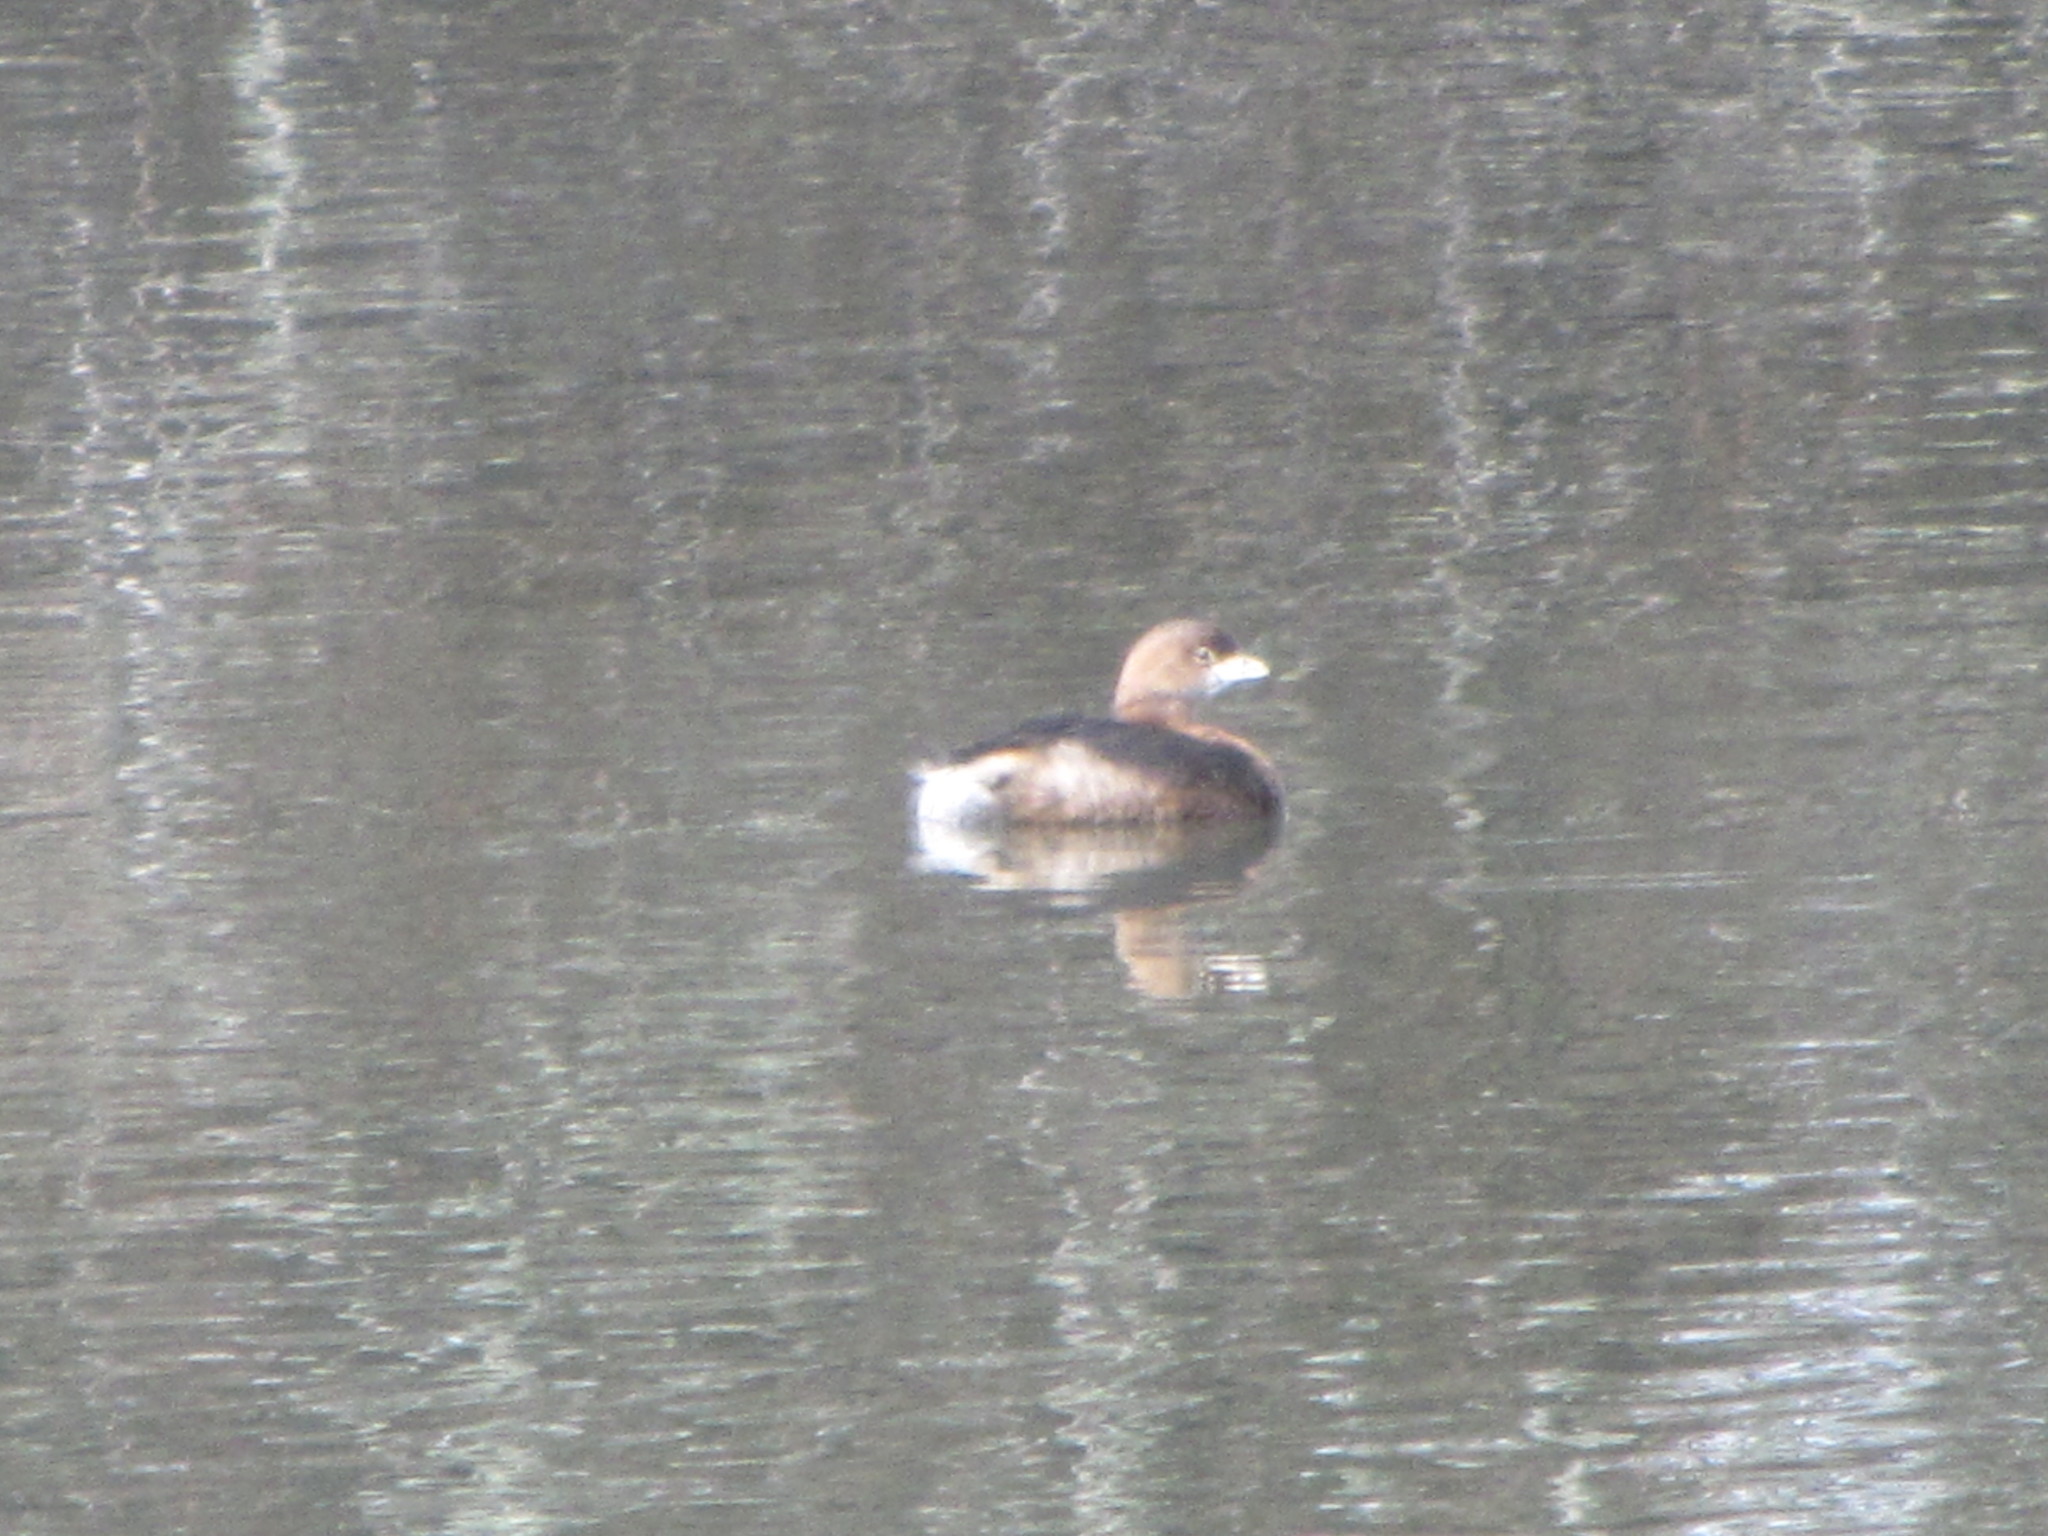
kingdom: Animalia
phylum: Chordata
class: Aves
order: Podicipediformes
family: Podicipedidae
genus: Podilymbus
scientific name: Podilymbus podiceps
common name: Pied-billed grebe
